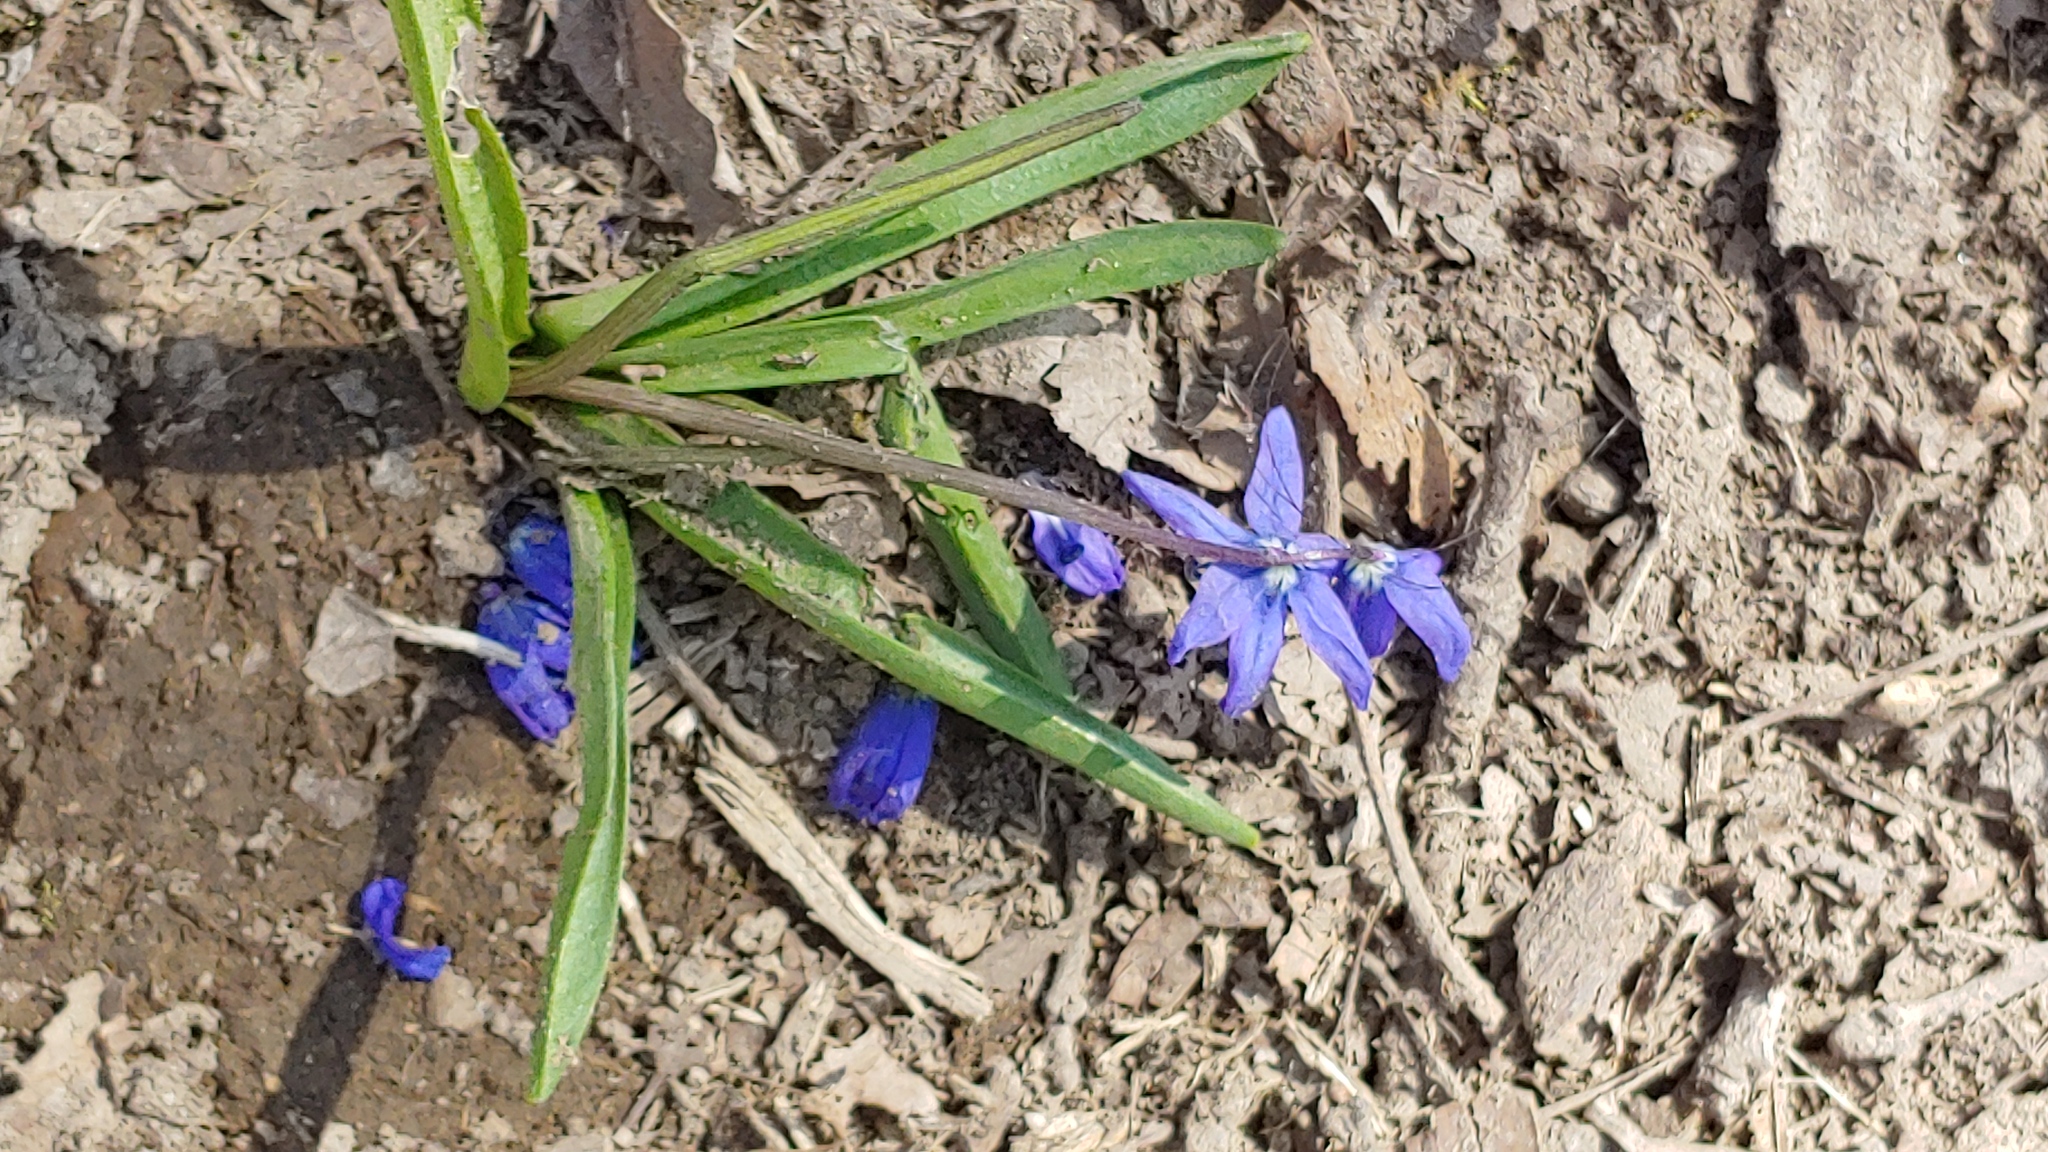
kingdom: Plantae
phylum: Tracheophyta
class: Liliopsida
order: Asparagales
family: Asparagaceae
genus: Scilla
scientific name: Scilla siberica
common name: Siberian squill
